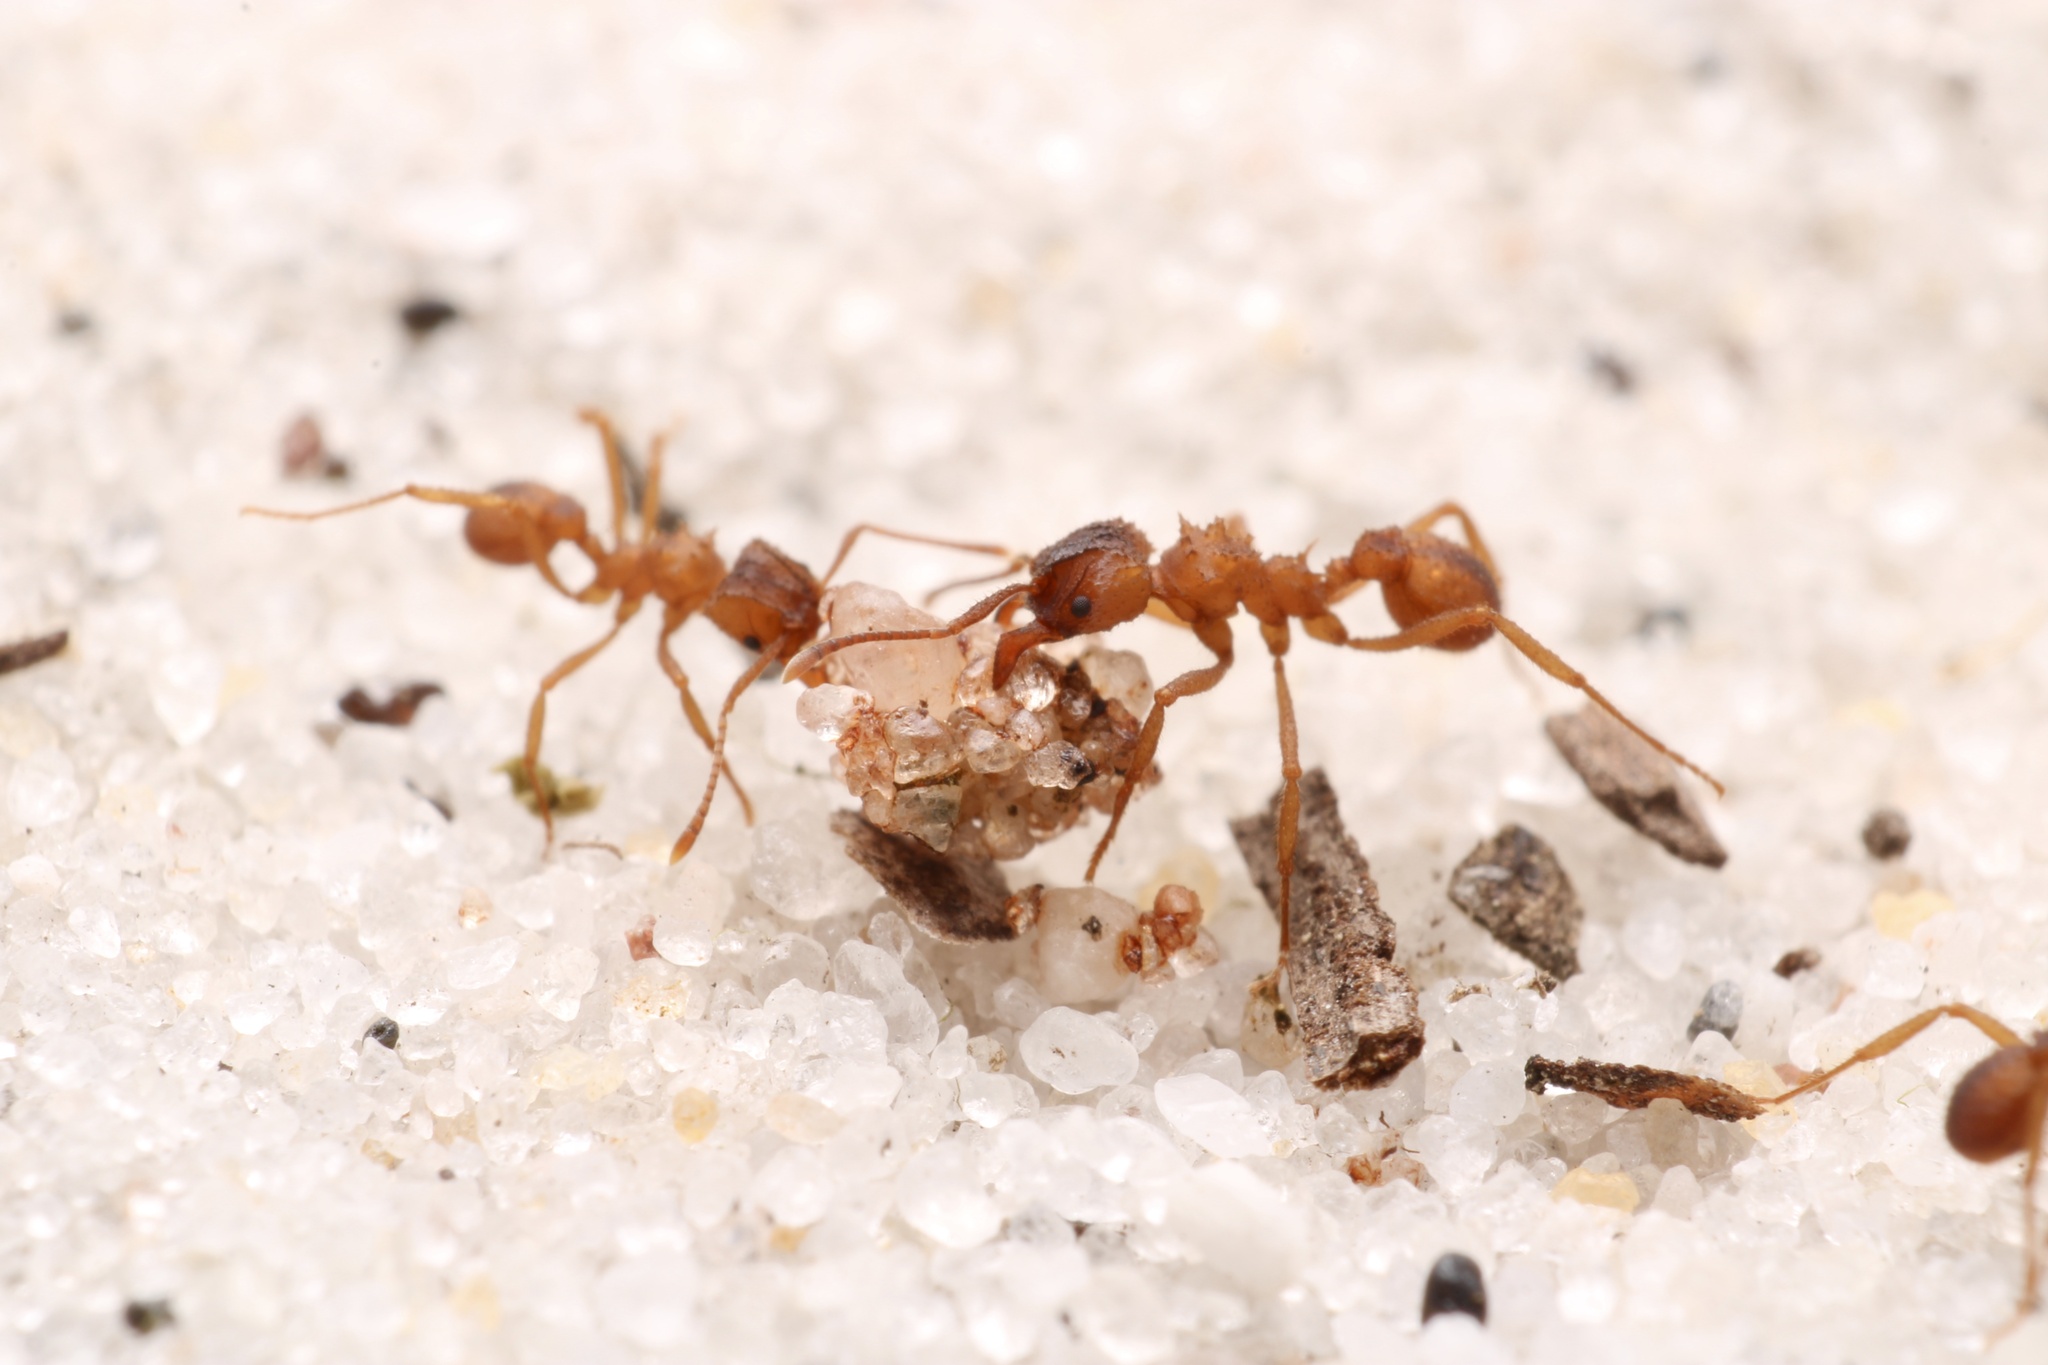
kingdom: Animalia
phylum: Arthropoda
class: Insecta
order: Hymenoptera
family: Formicidae
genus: Trachymyrmex
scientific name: Trachymyrmex septentrionalis
